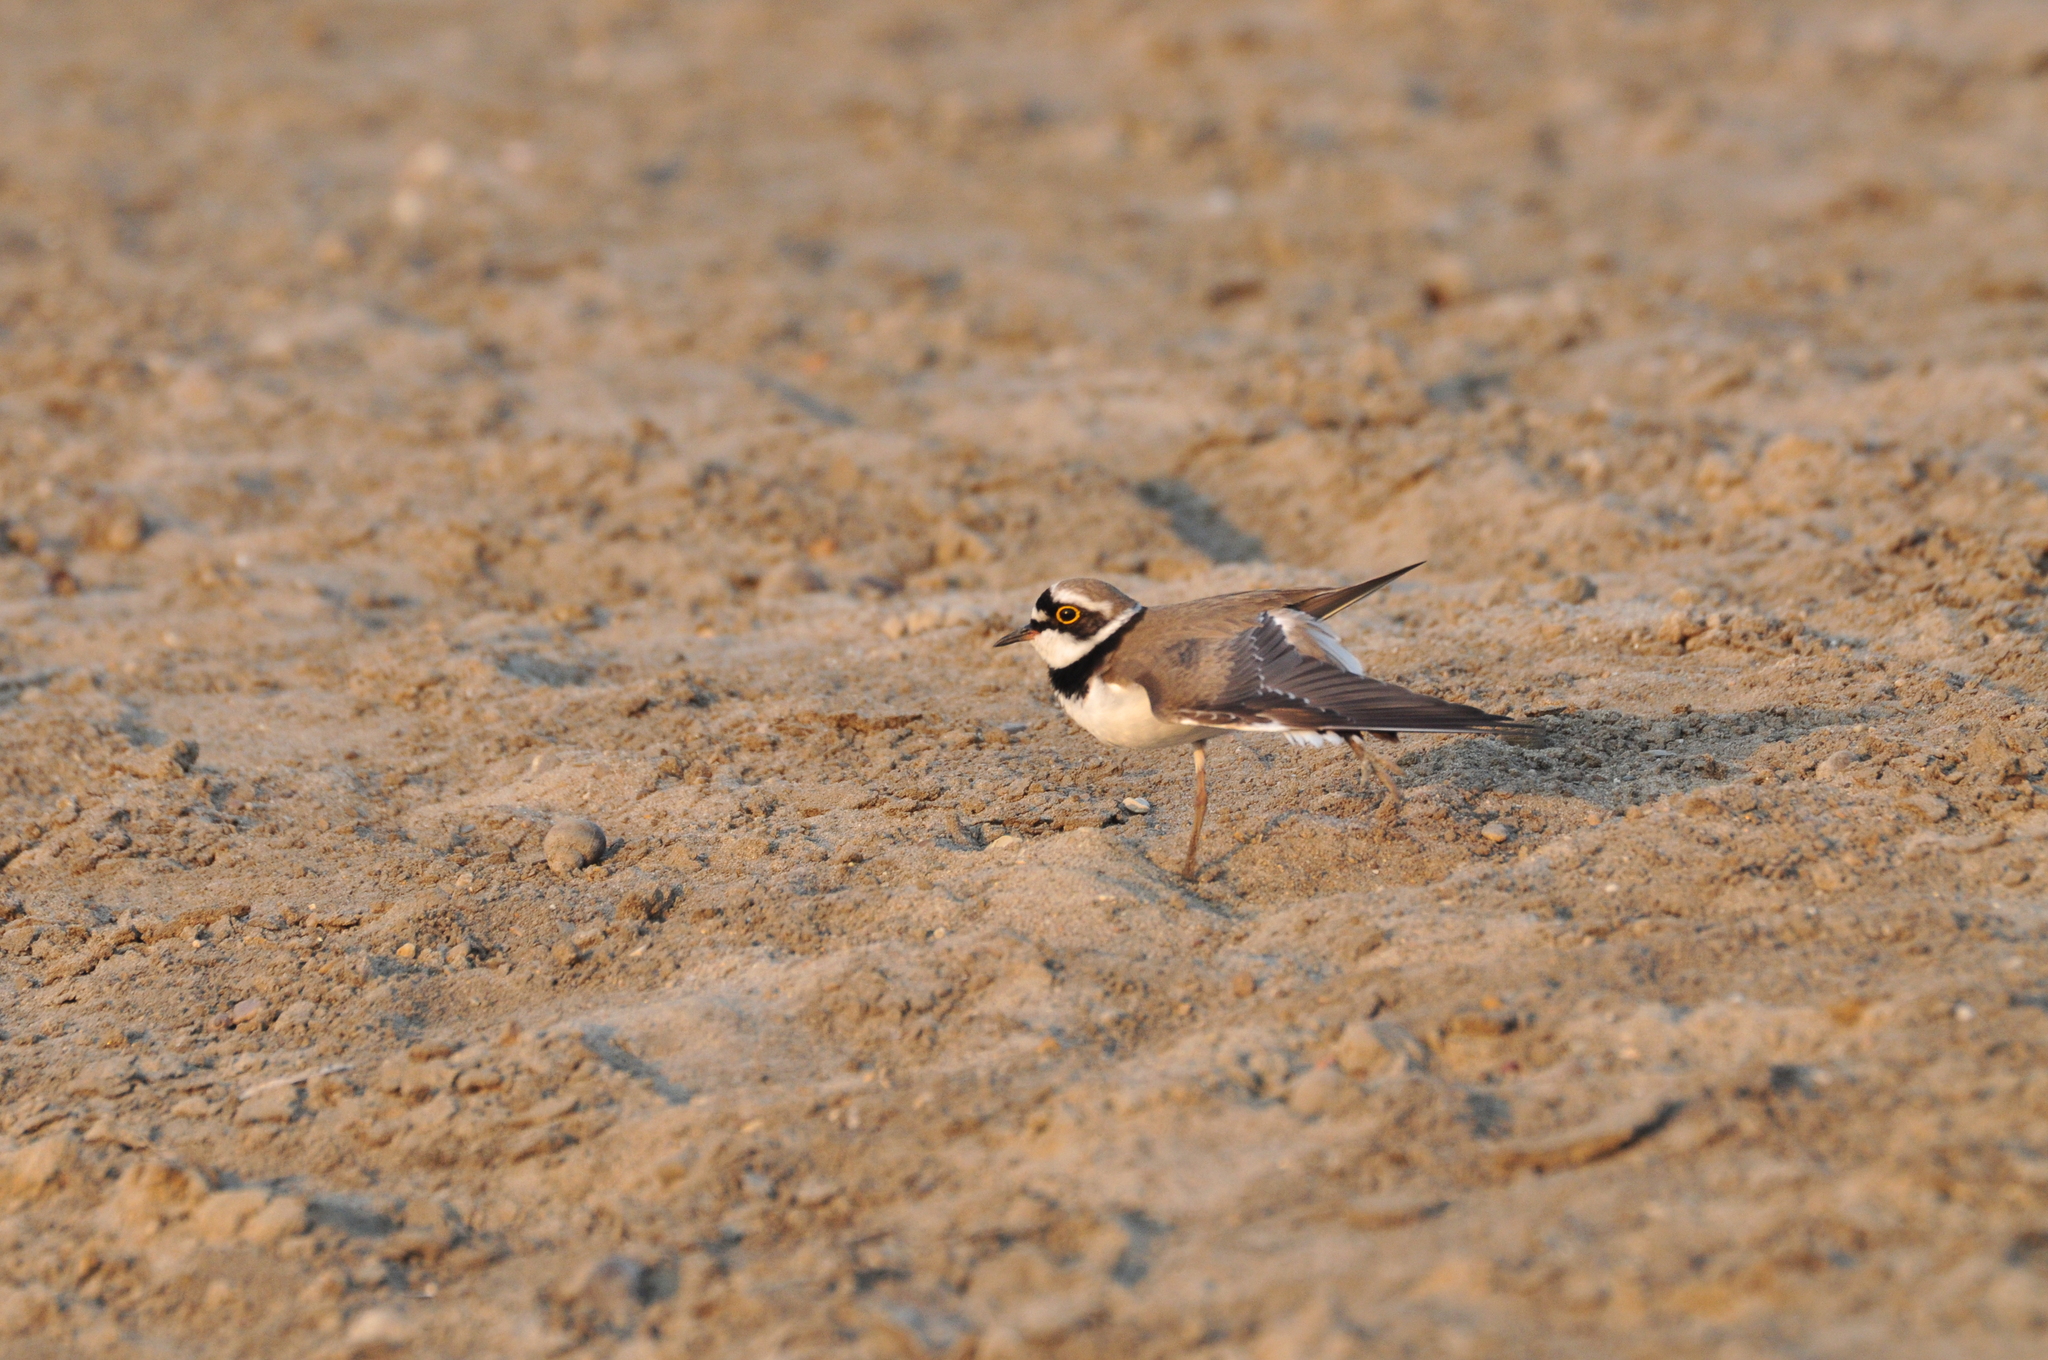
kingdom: Animalia
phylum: Chordata
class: Aves
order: Charadriiformes
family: Charadriidae
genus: Charadrius
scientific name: Charadrius dubius
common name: Little ringed plover
